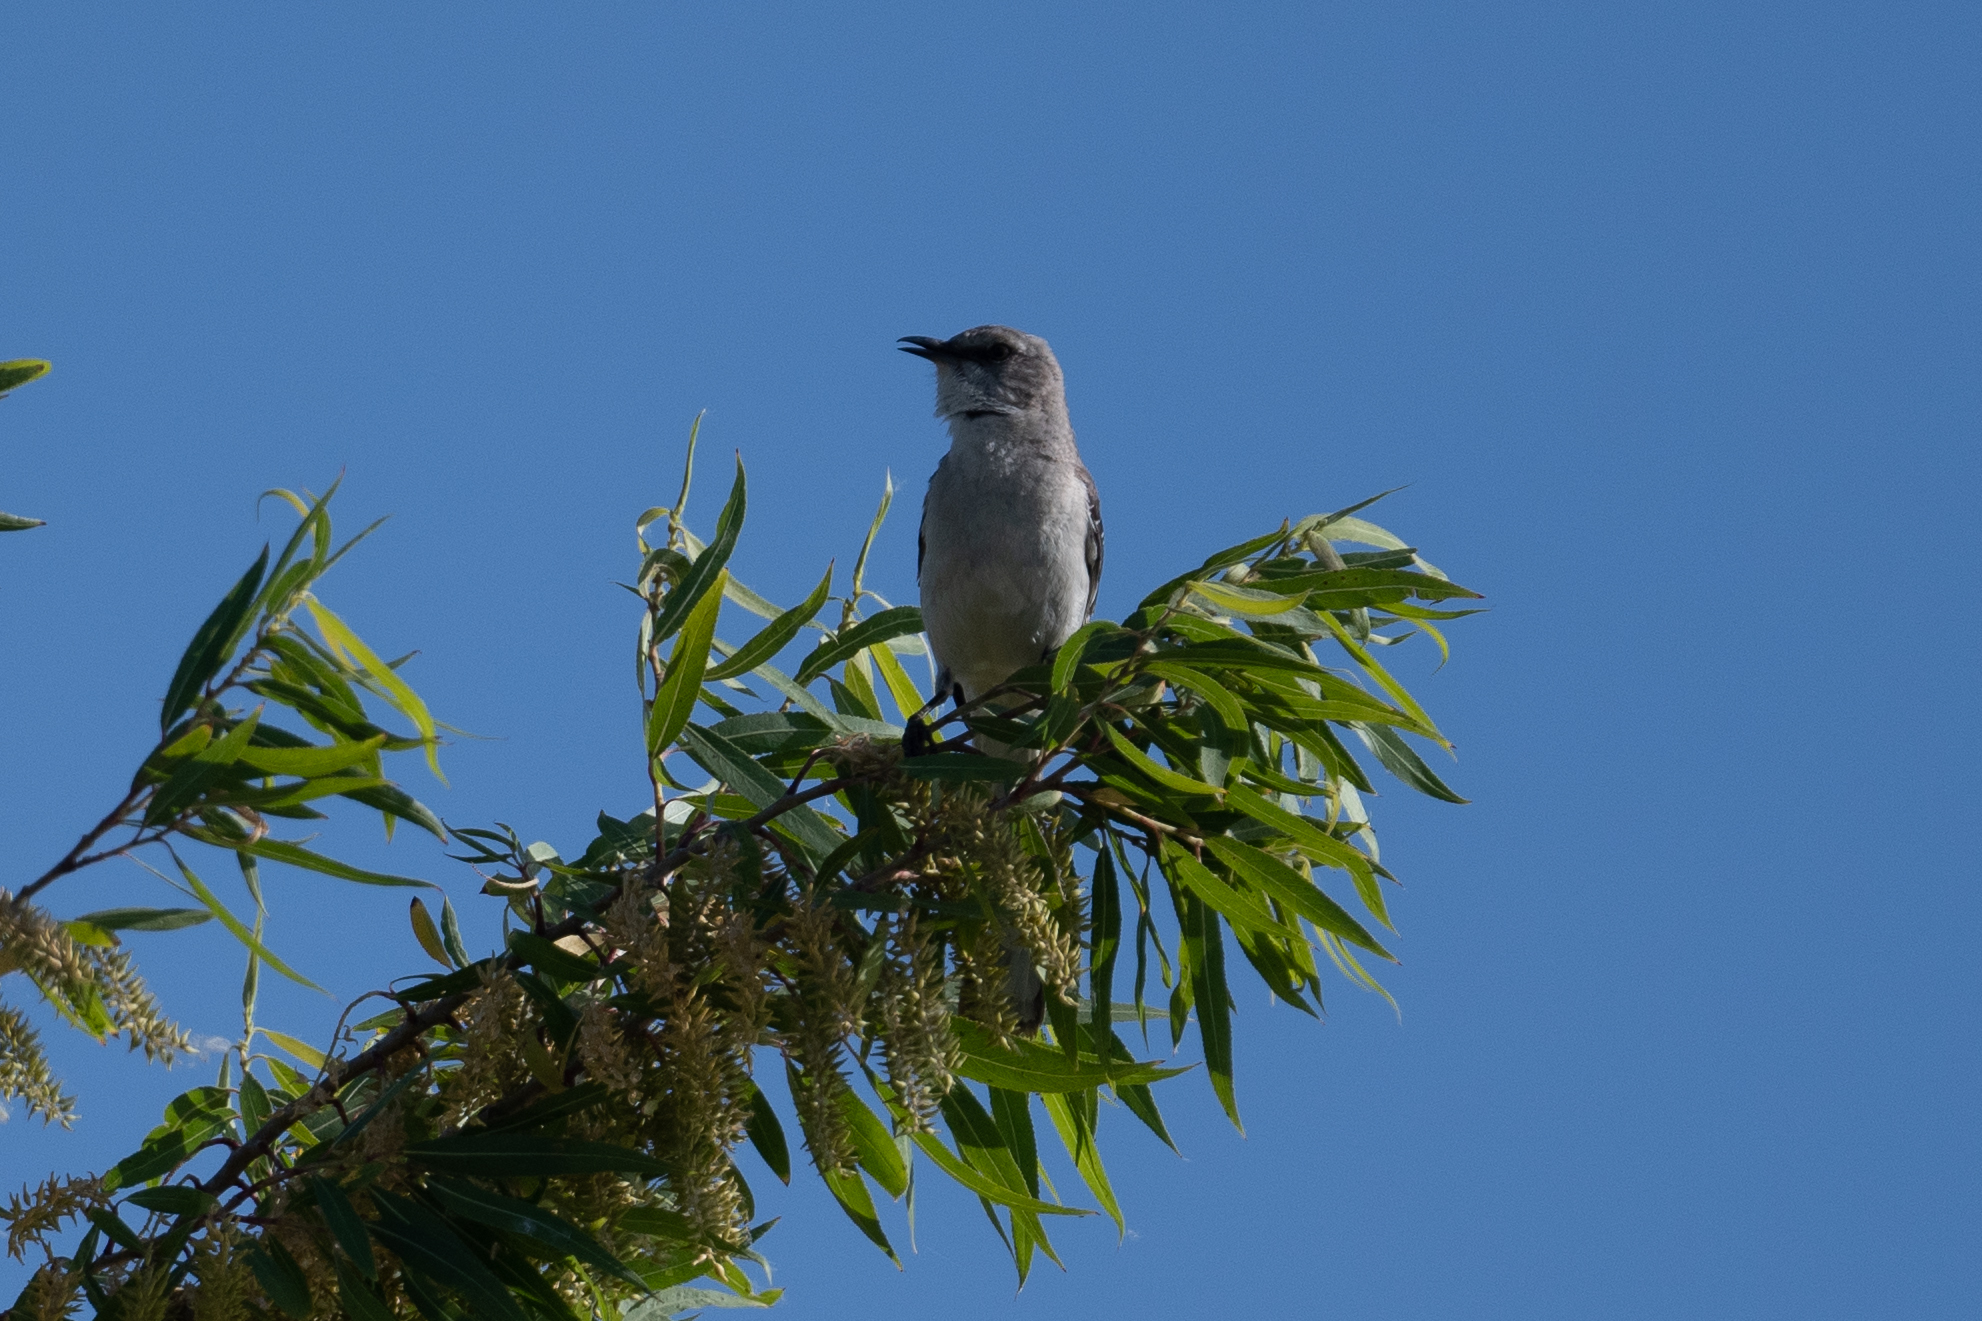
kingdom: Animalia
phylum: Chordata
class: Aves
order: Passeriformes
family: Mimidae
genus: Mimus
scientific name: Mimus polyglottos
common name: Northern mockingbird
